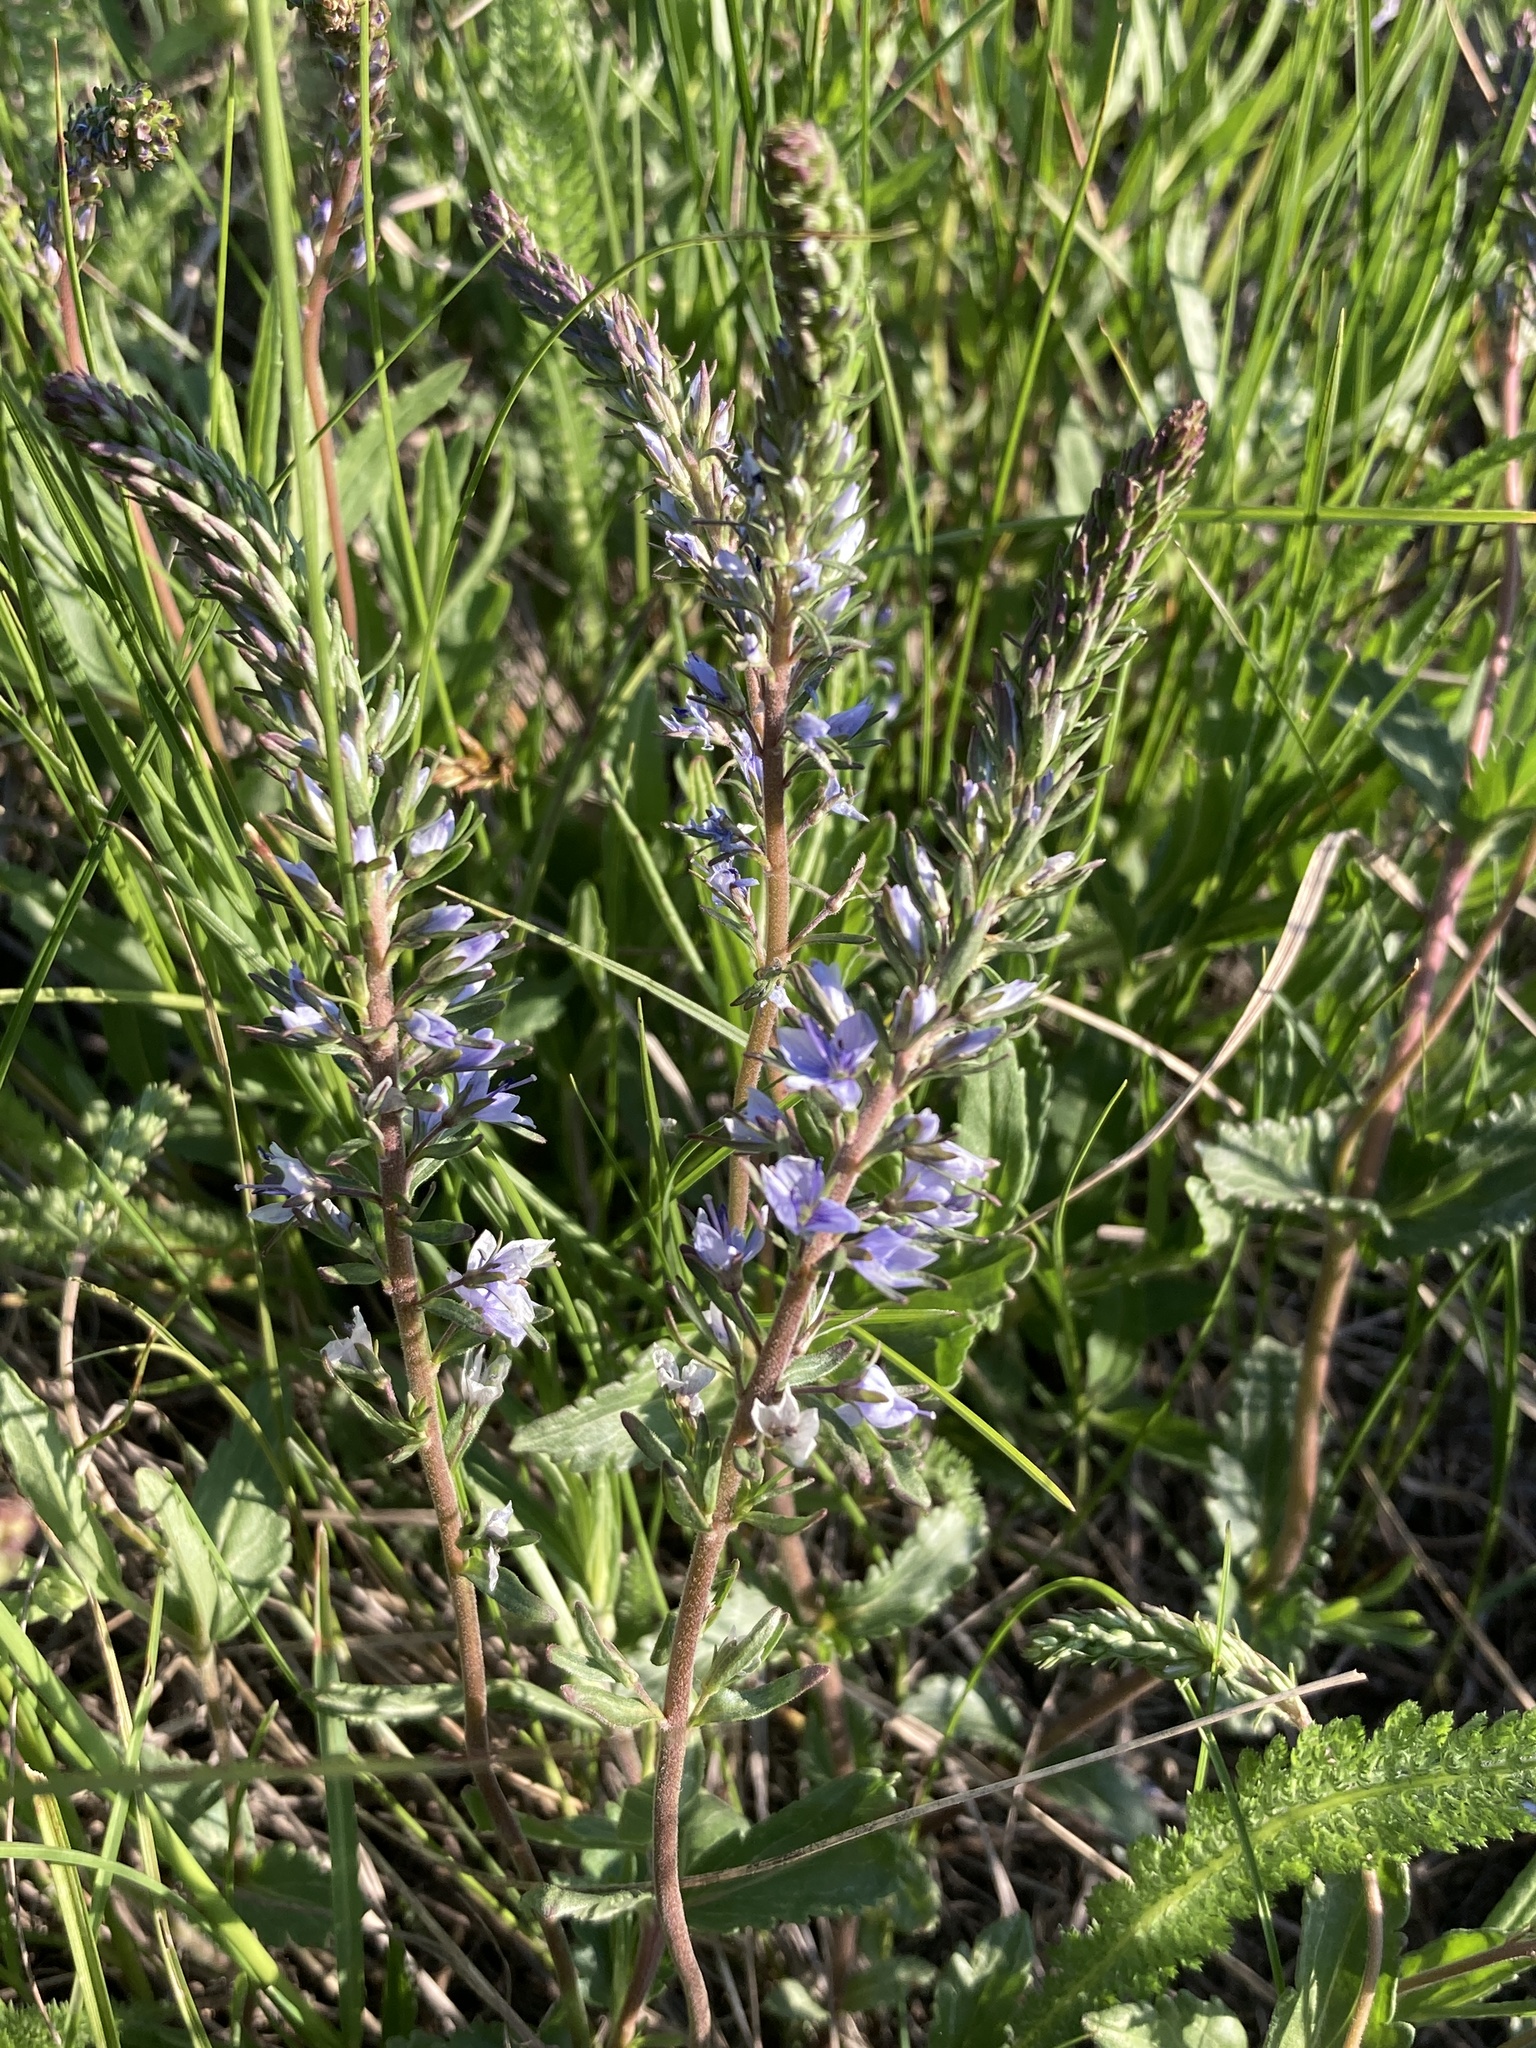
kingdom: Plantae
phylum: Tracheophyta
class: Magnoliopsida
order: Lamiales
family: Plantaginaceae
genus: Veronica
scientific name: Veronica prostrata
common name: Prostrate speedwell
